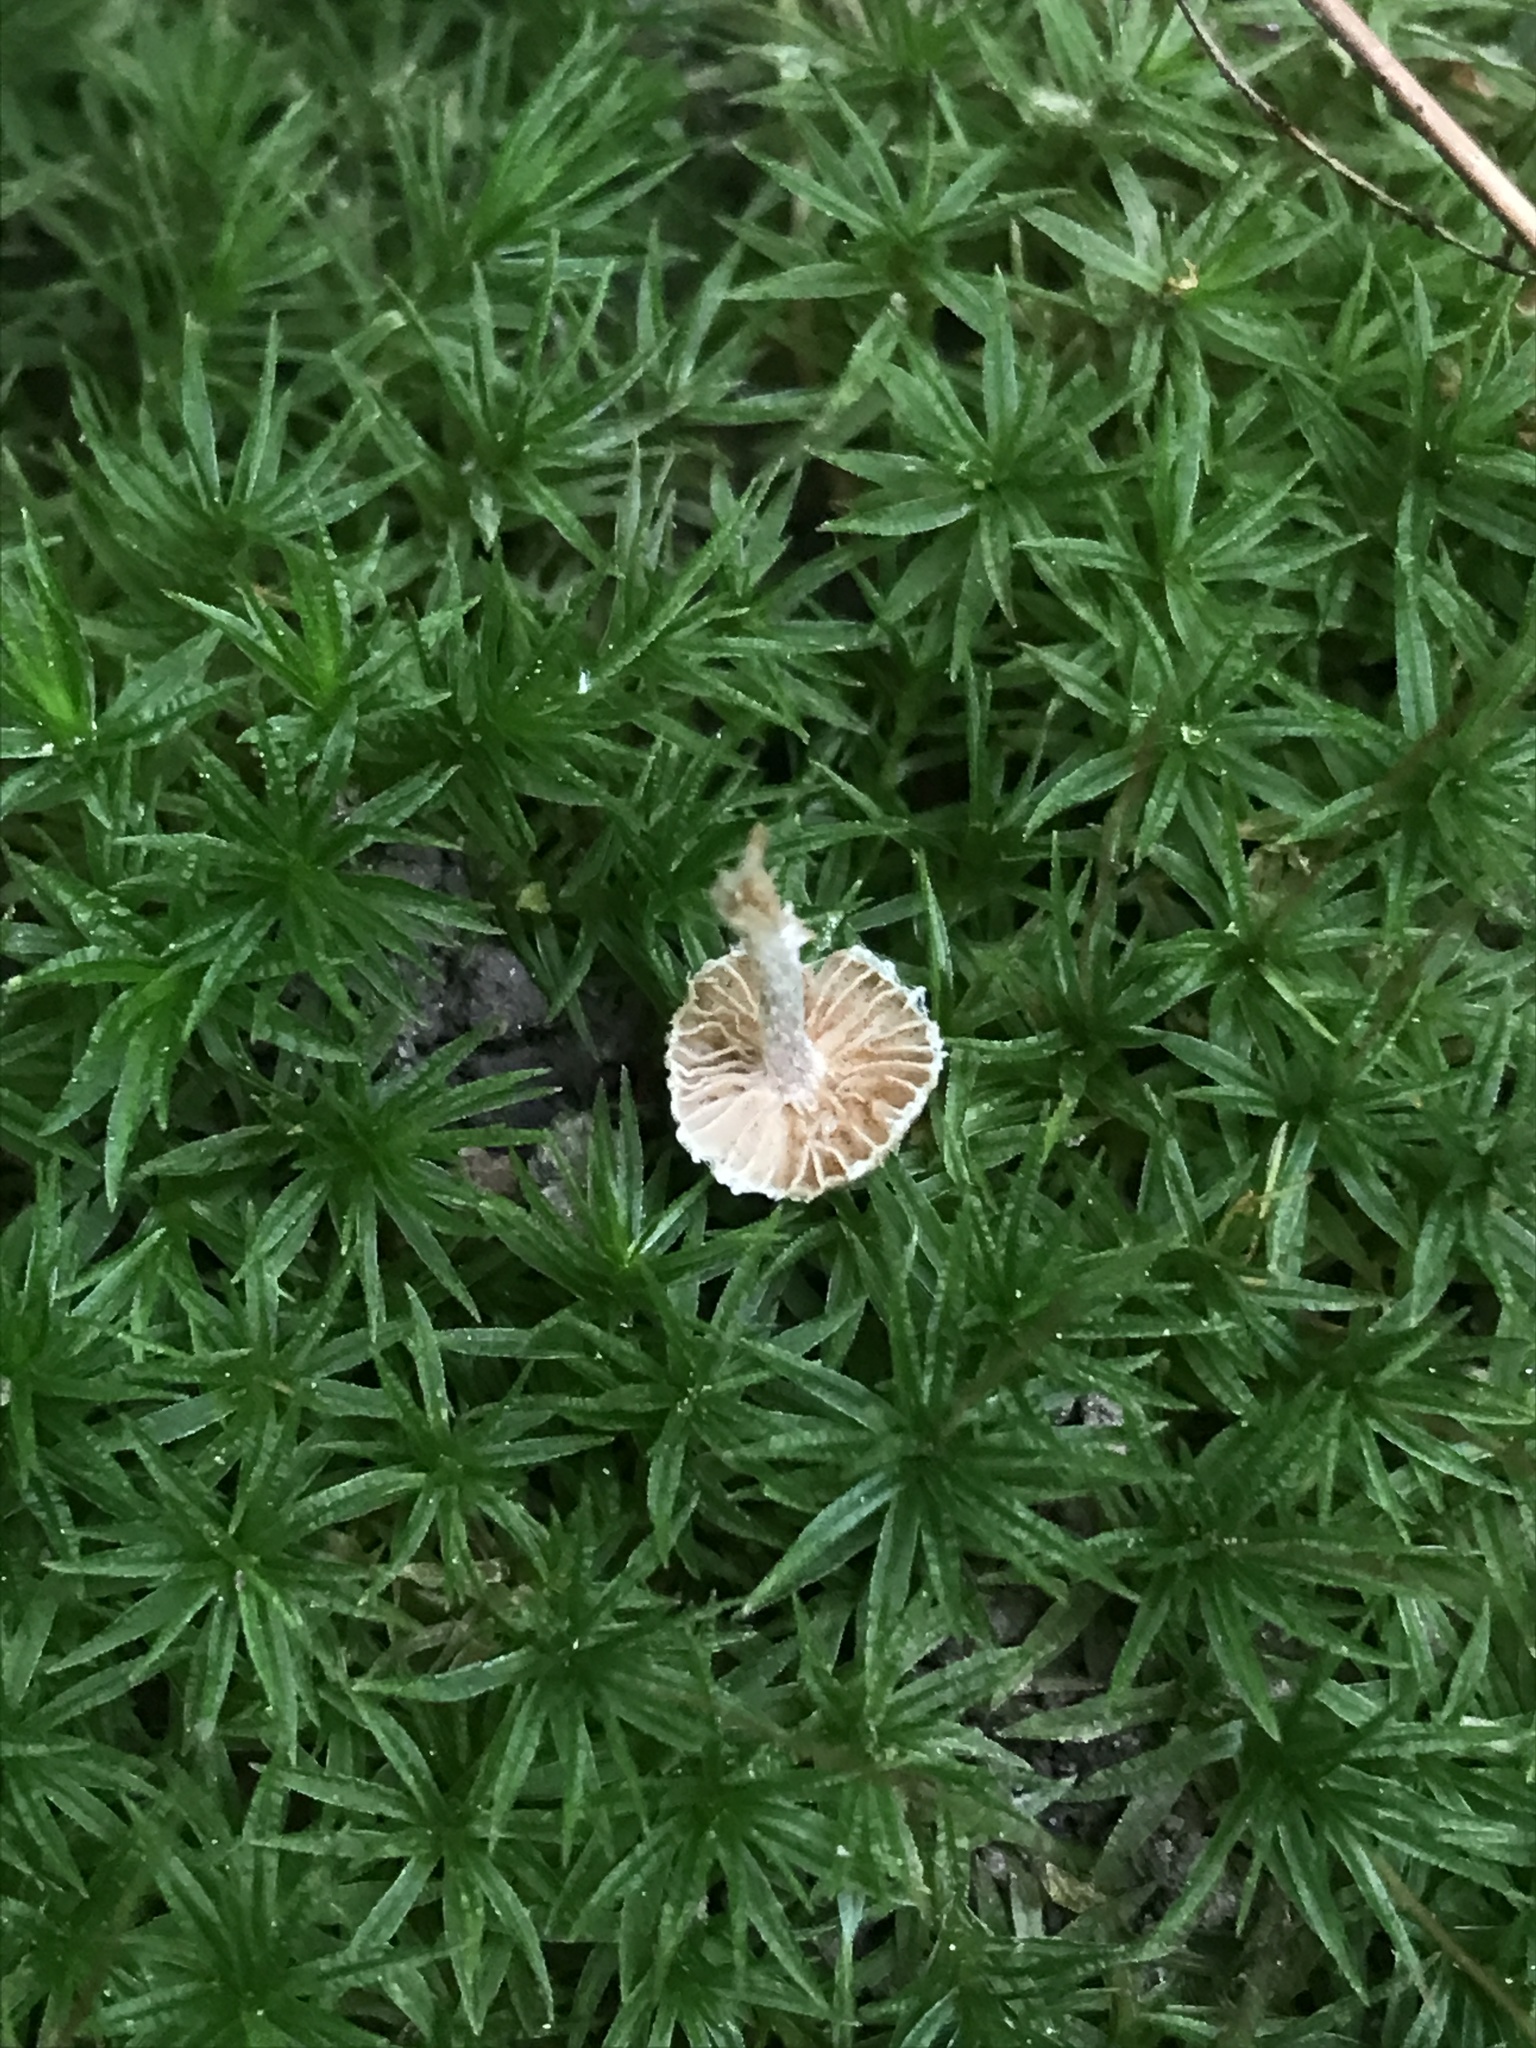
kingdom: Fungi
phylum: Basidiomycota
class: Agaricomycetes
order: Agaricales
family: Inocybaceae
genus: Inocybe
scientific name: Inocybe putilla
